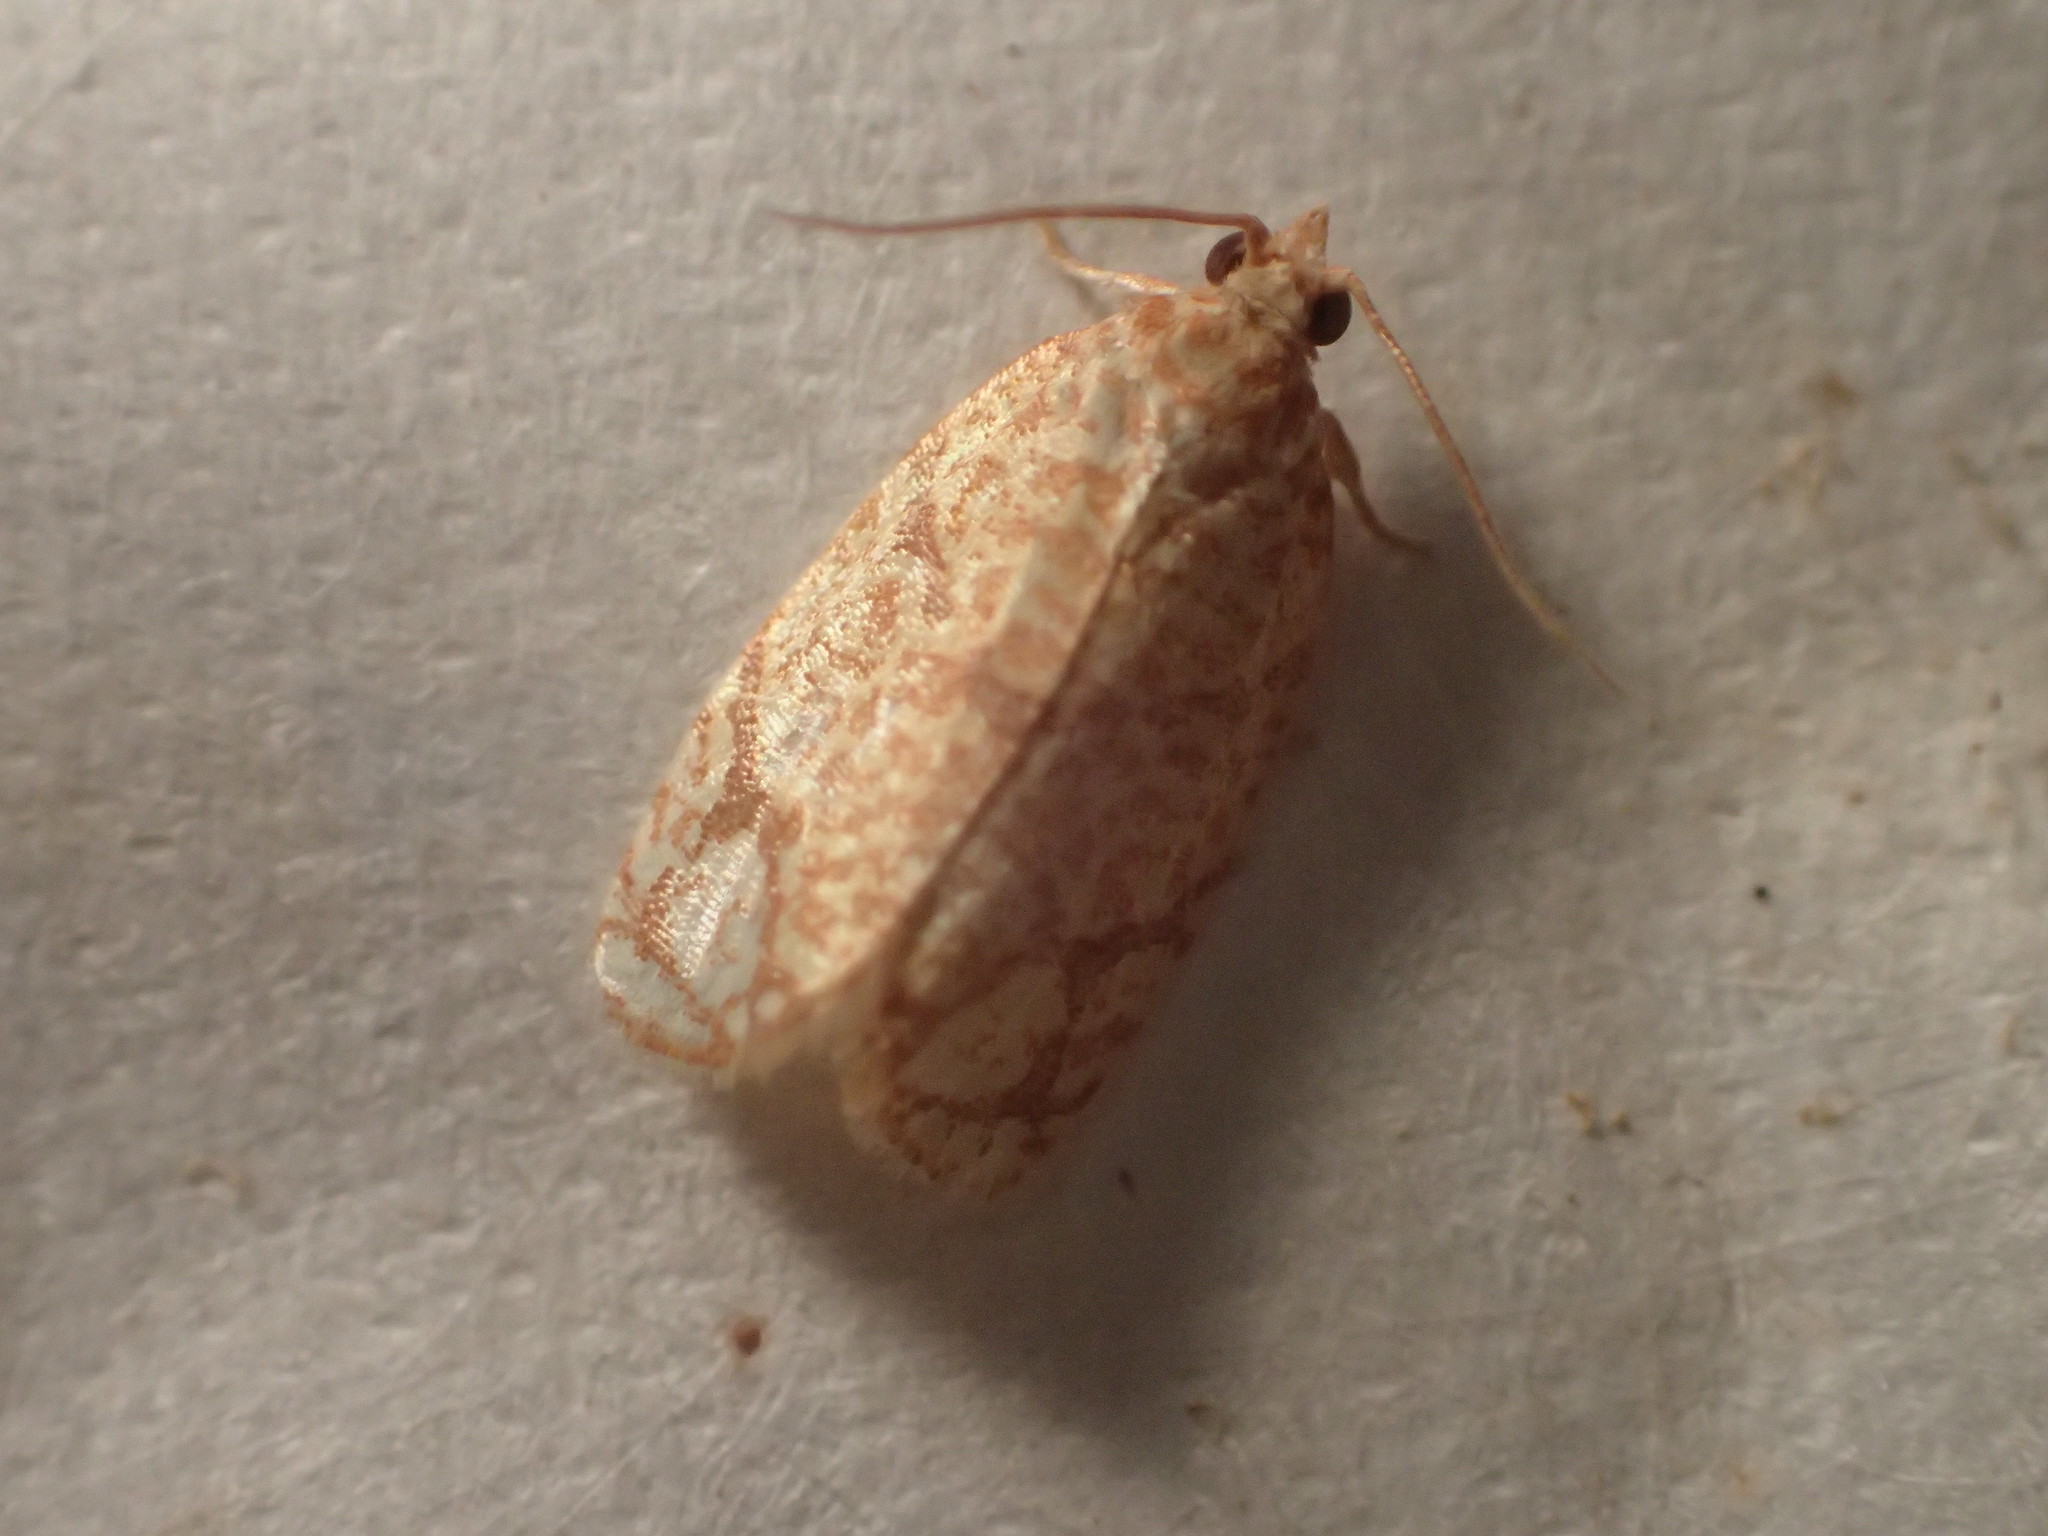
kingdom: Animalia
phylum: Arthropoda
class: Insecta
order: Lepidoptera
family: Tortricidae
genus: Argyrotaenia
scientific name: Argyrotaenia quercifoliana
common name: Yellow-winged oak leafroller moth
